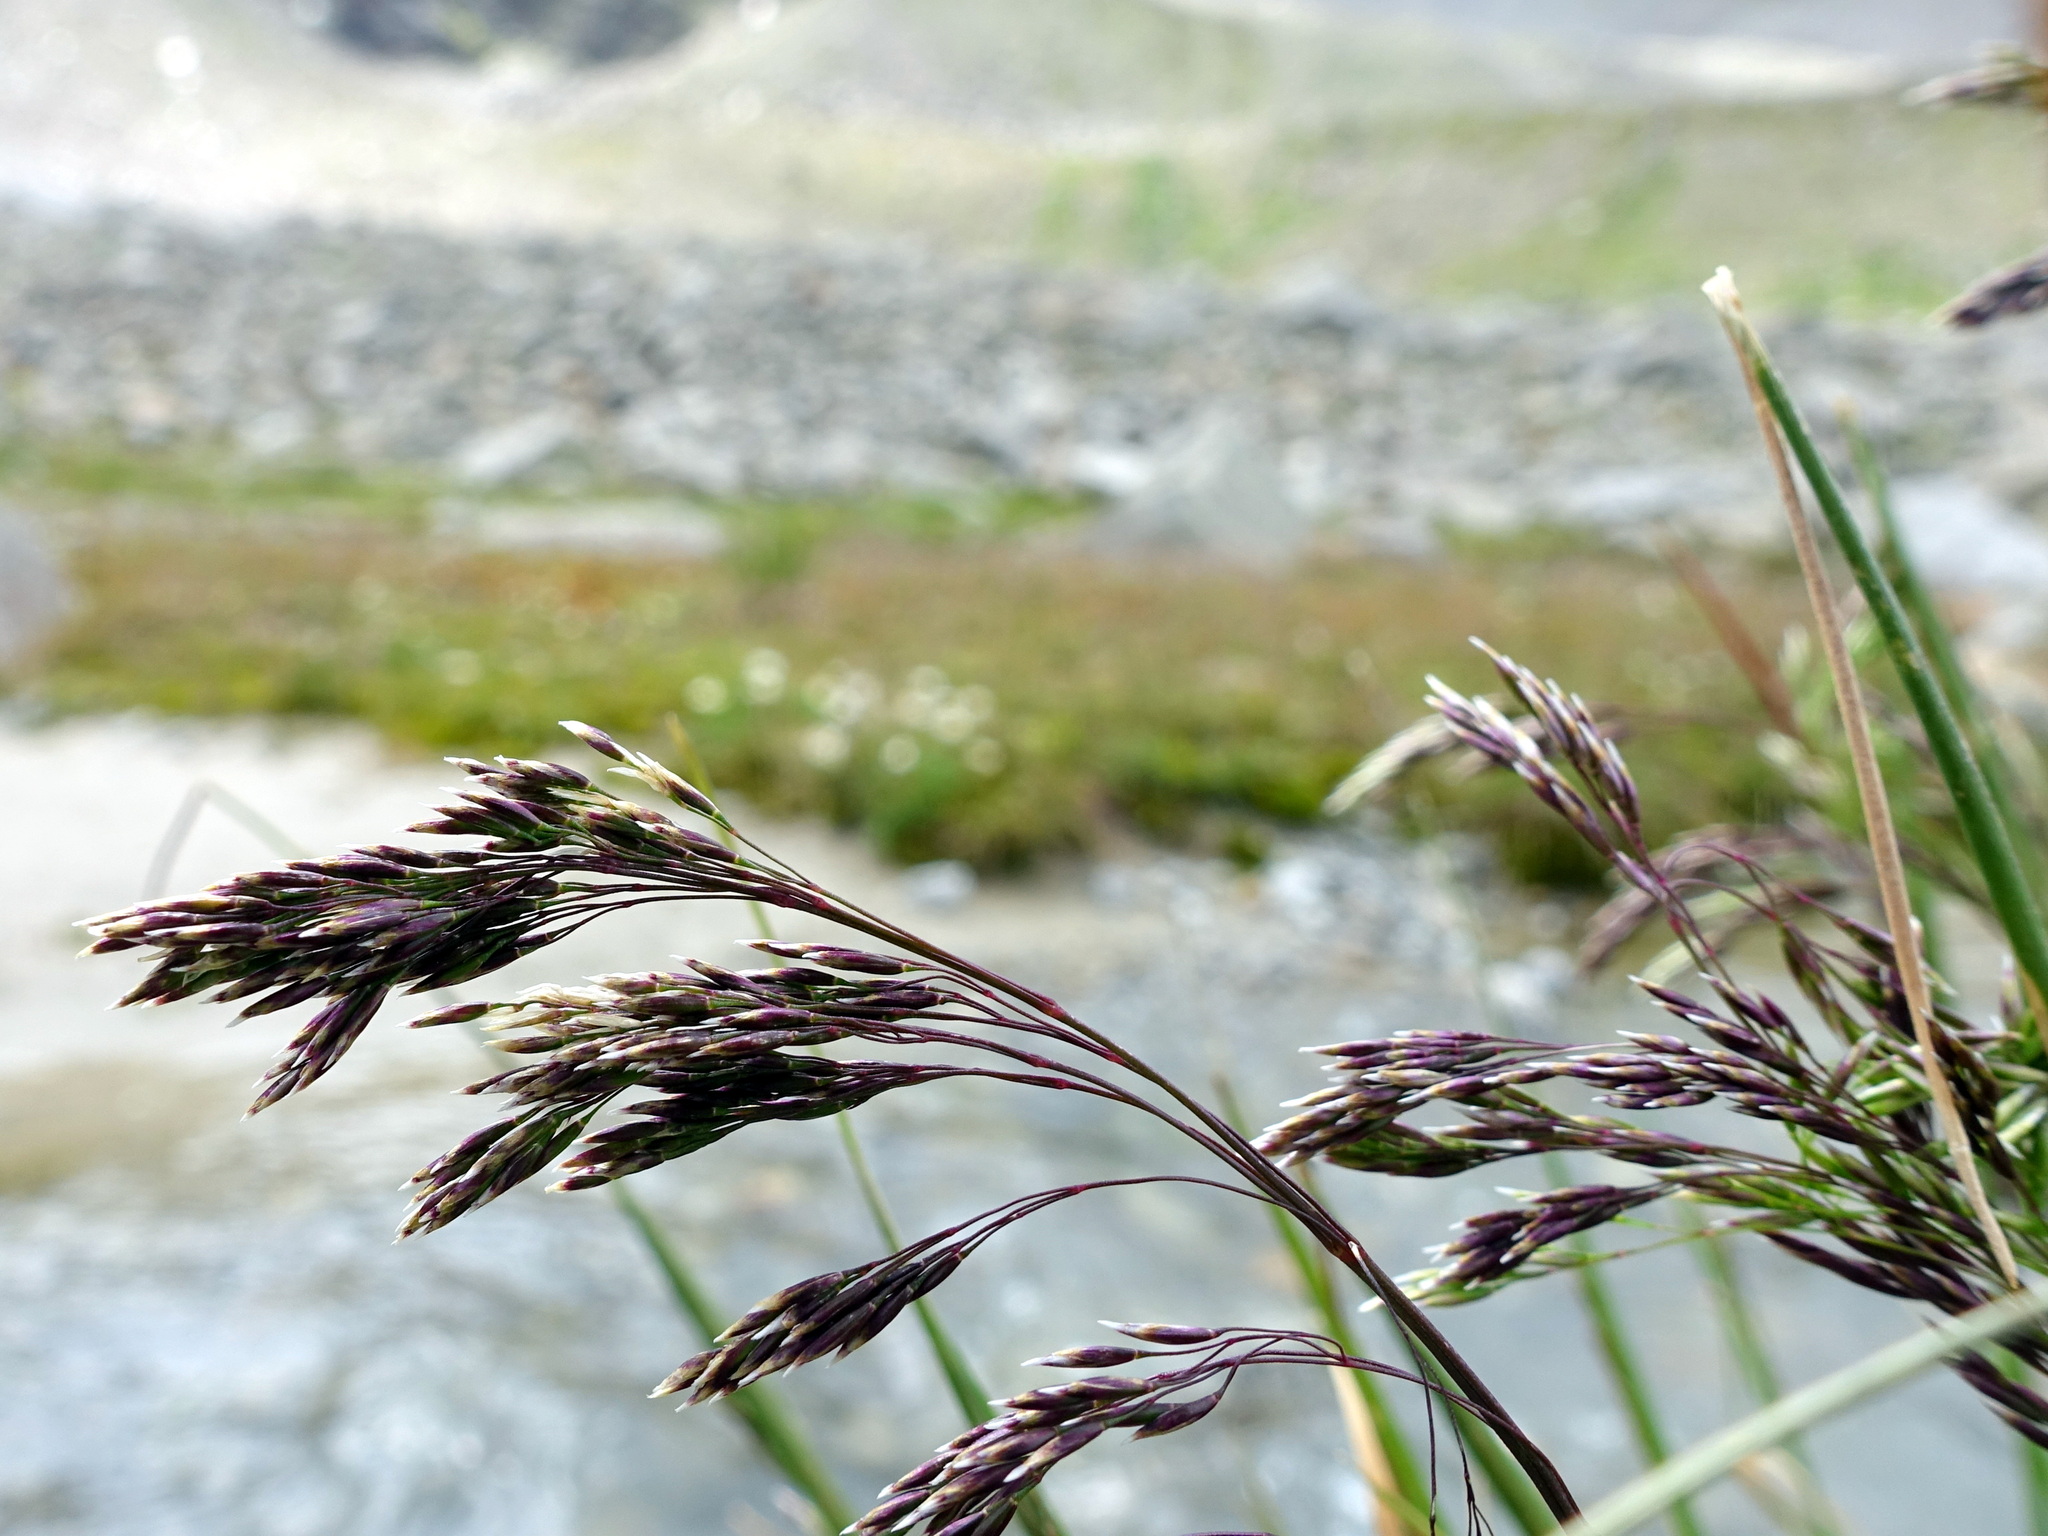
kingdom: Plantae
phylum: Tracheophyta
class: Liliopsida
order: Poales
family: Poaceae
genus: Deschampsia
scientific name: Deschampsia cespitosa
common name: Tufted hair-grass
